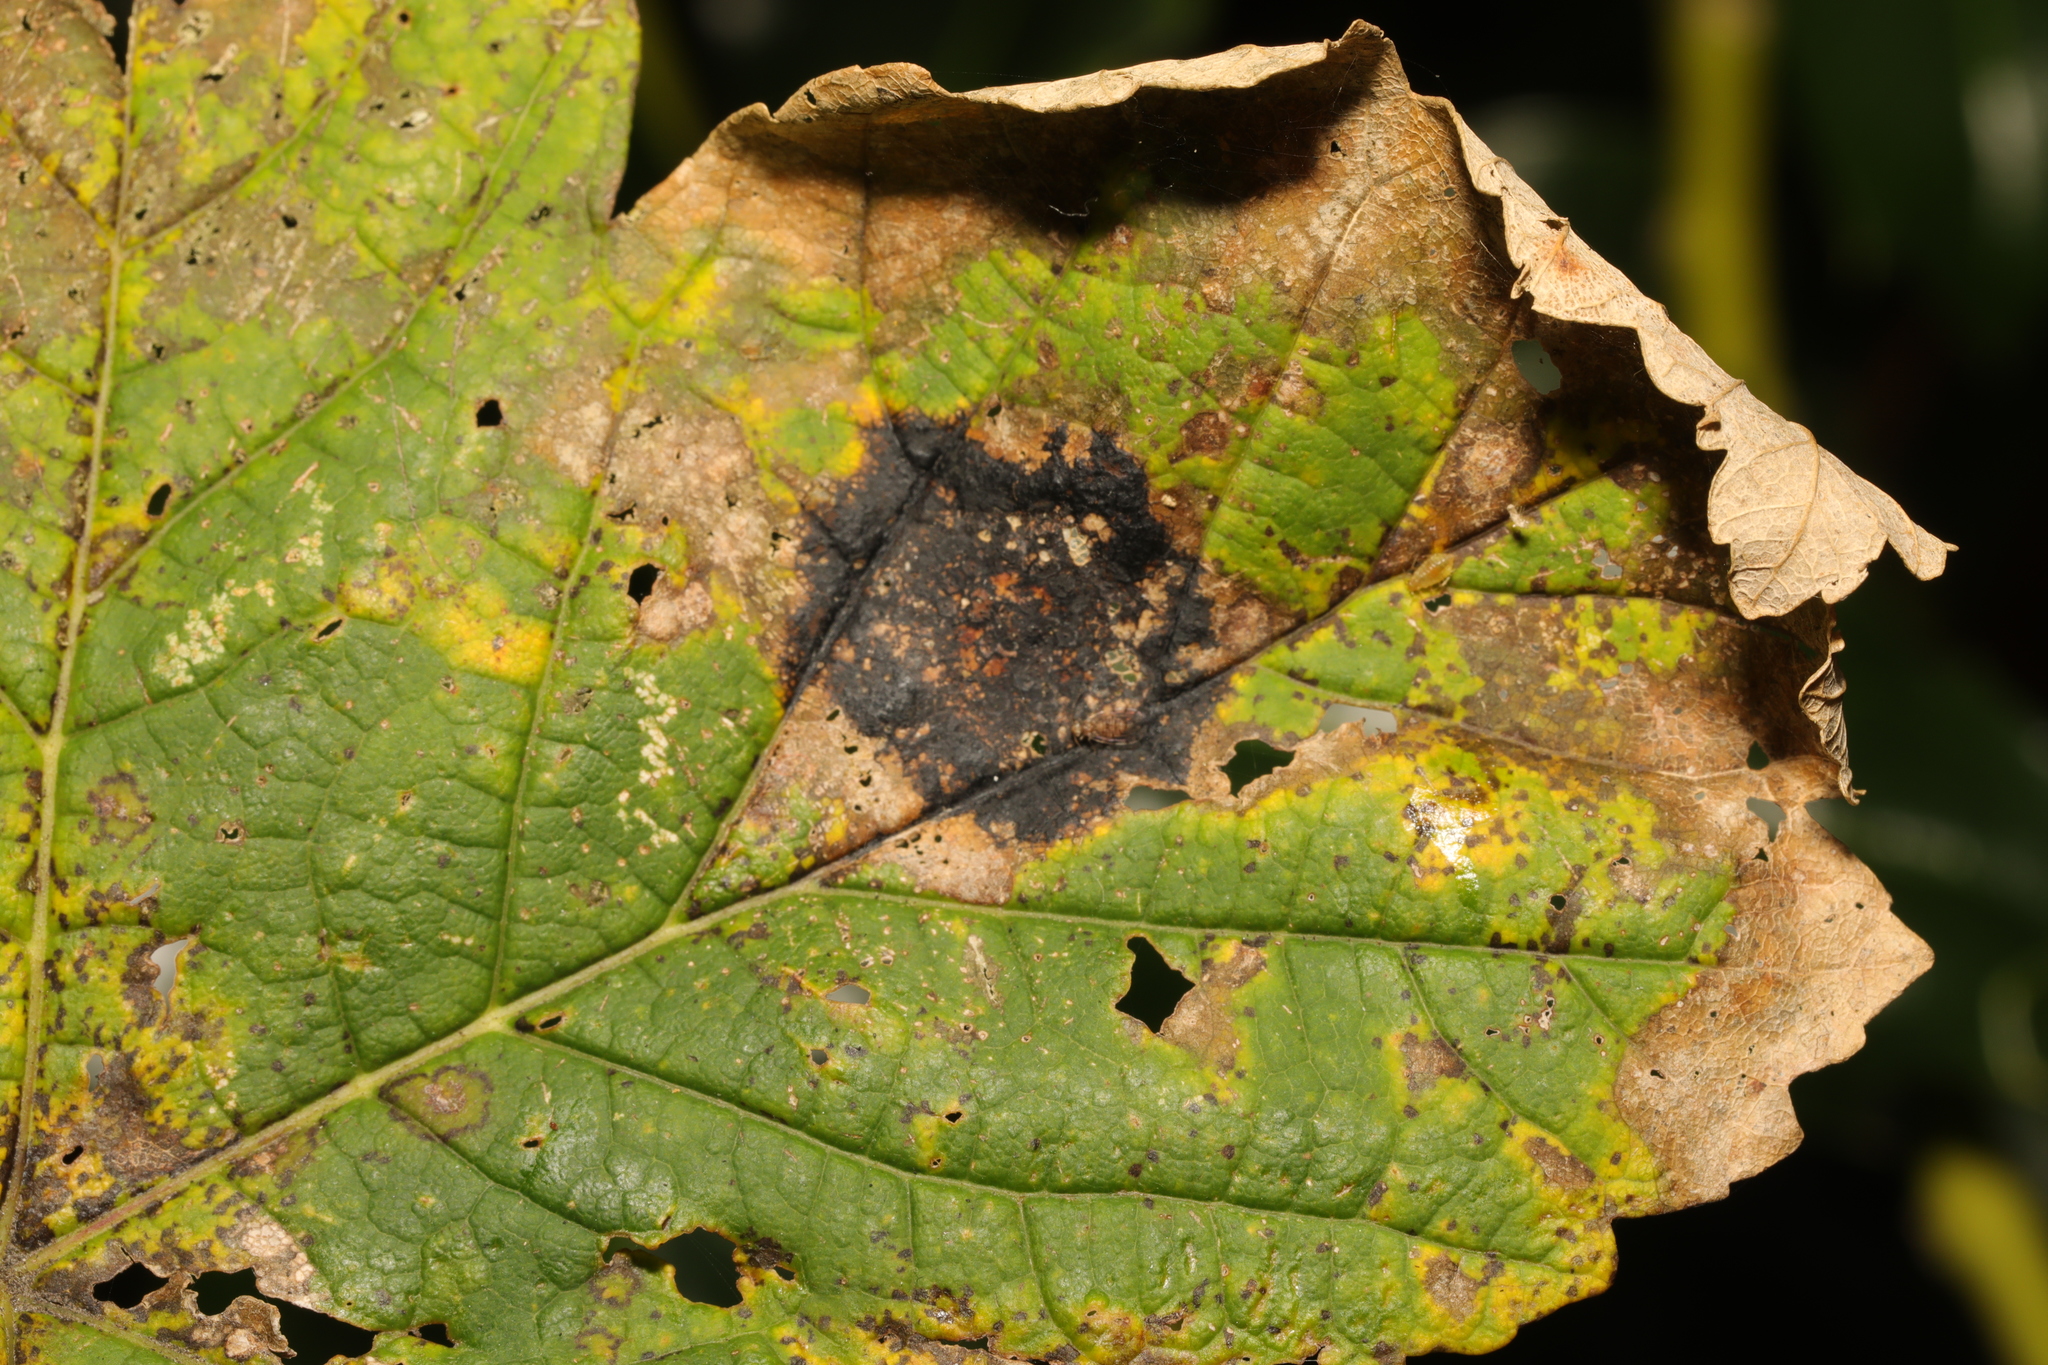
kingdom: Fungi
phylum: Ascomycota
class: Leotiomycetes
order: Rhytismatales
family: Rhytismataceae
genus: Rhytisma
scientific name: Rhytisma acerinum
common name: European tar spot
